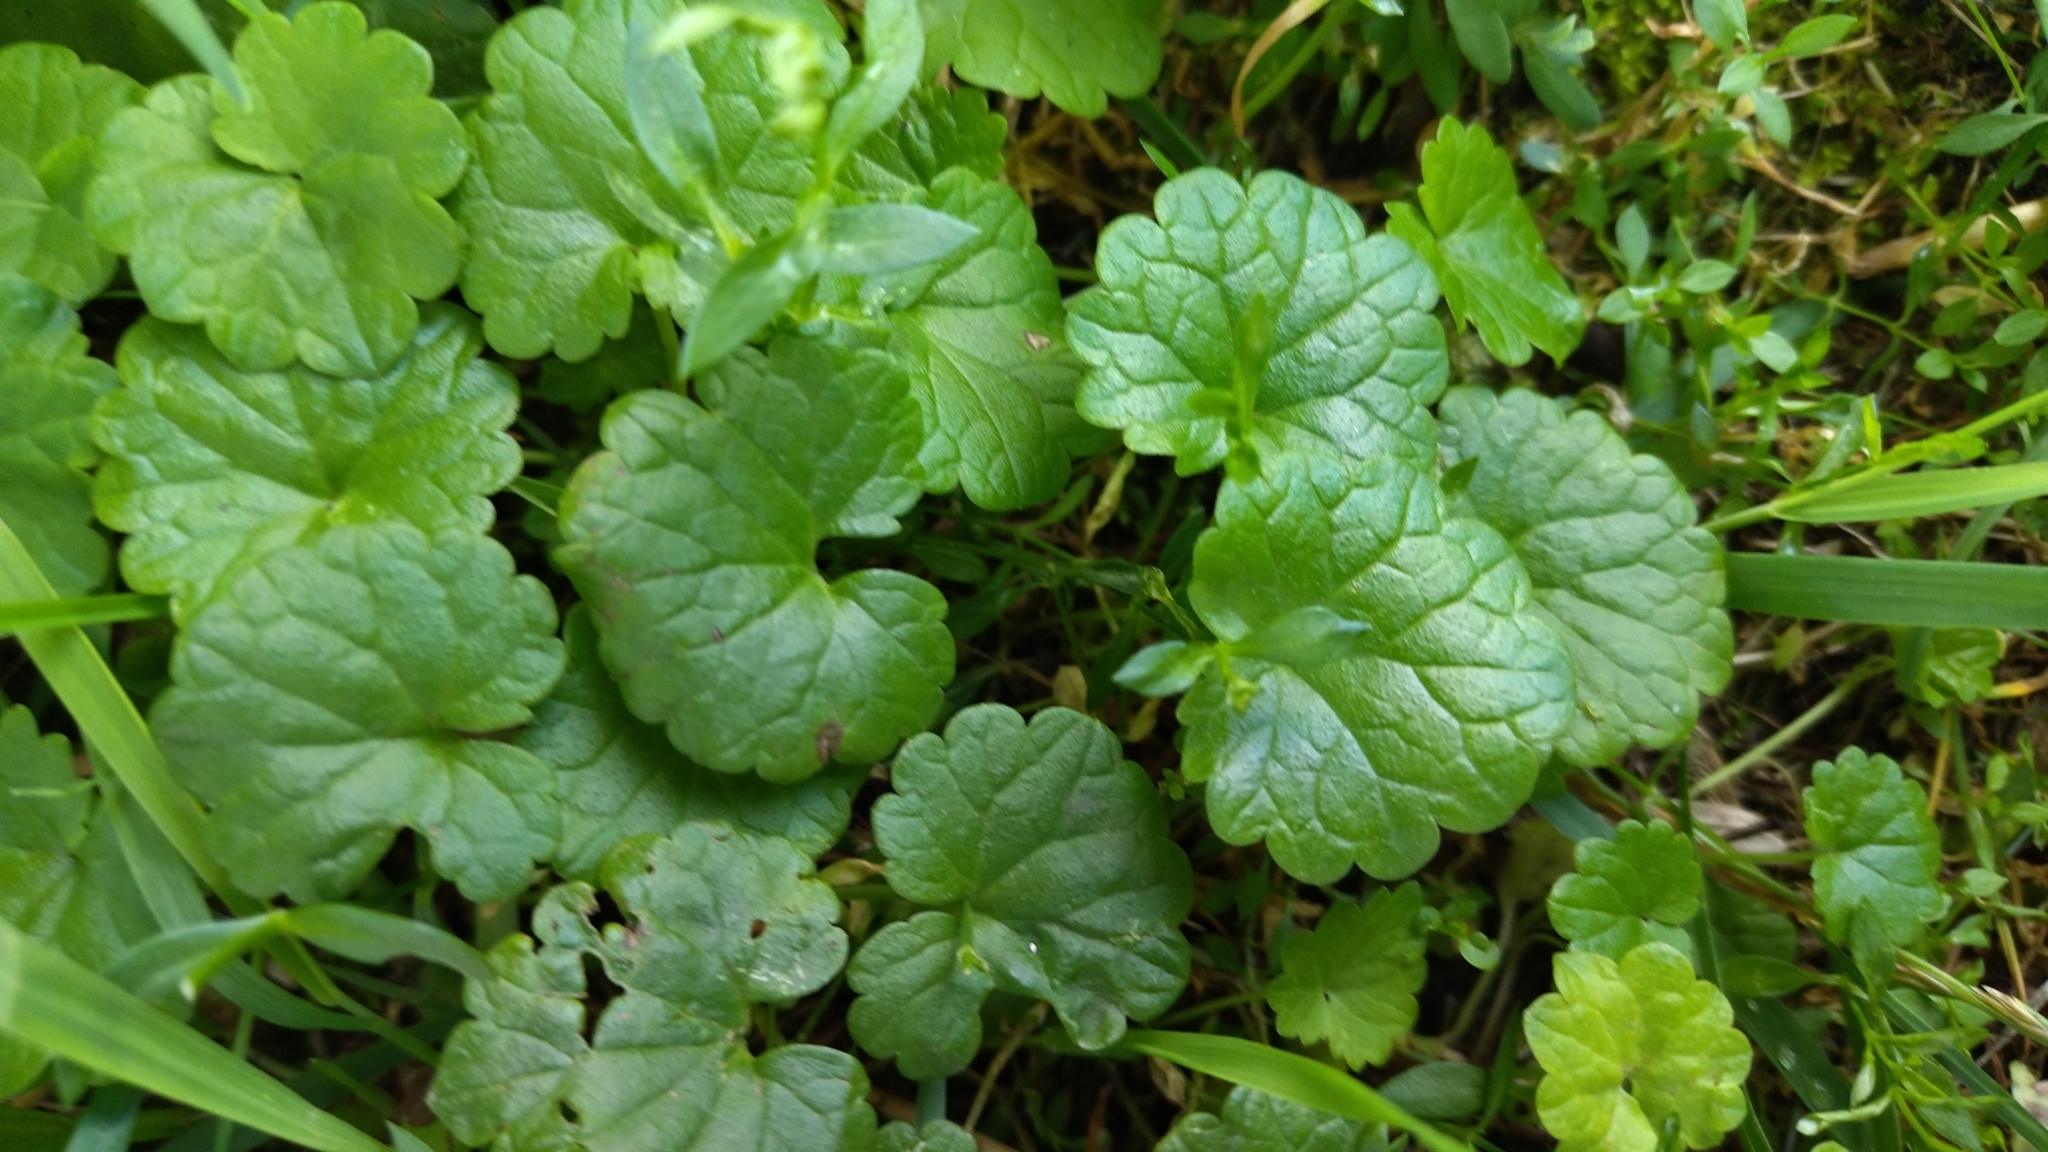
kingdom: Plantae
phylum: Tracheophyta
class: Magnoliopsida
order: Lamiales
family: Lamiaceae
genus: Glechoma
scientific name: Glechoma hederacea
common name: Ground ivy
